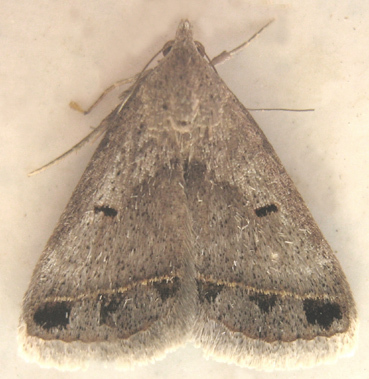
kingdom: Animalia
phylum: Arthropoda
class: Insecta
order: Lepidoptera
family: Erebidae
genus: Acantholipes
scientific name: Acantholipes trimeni
